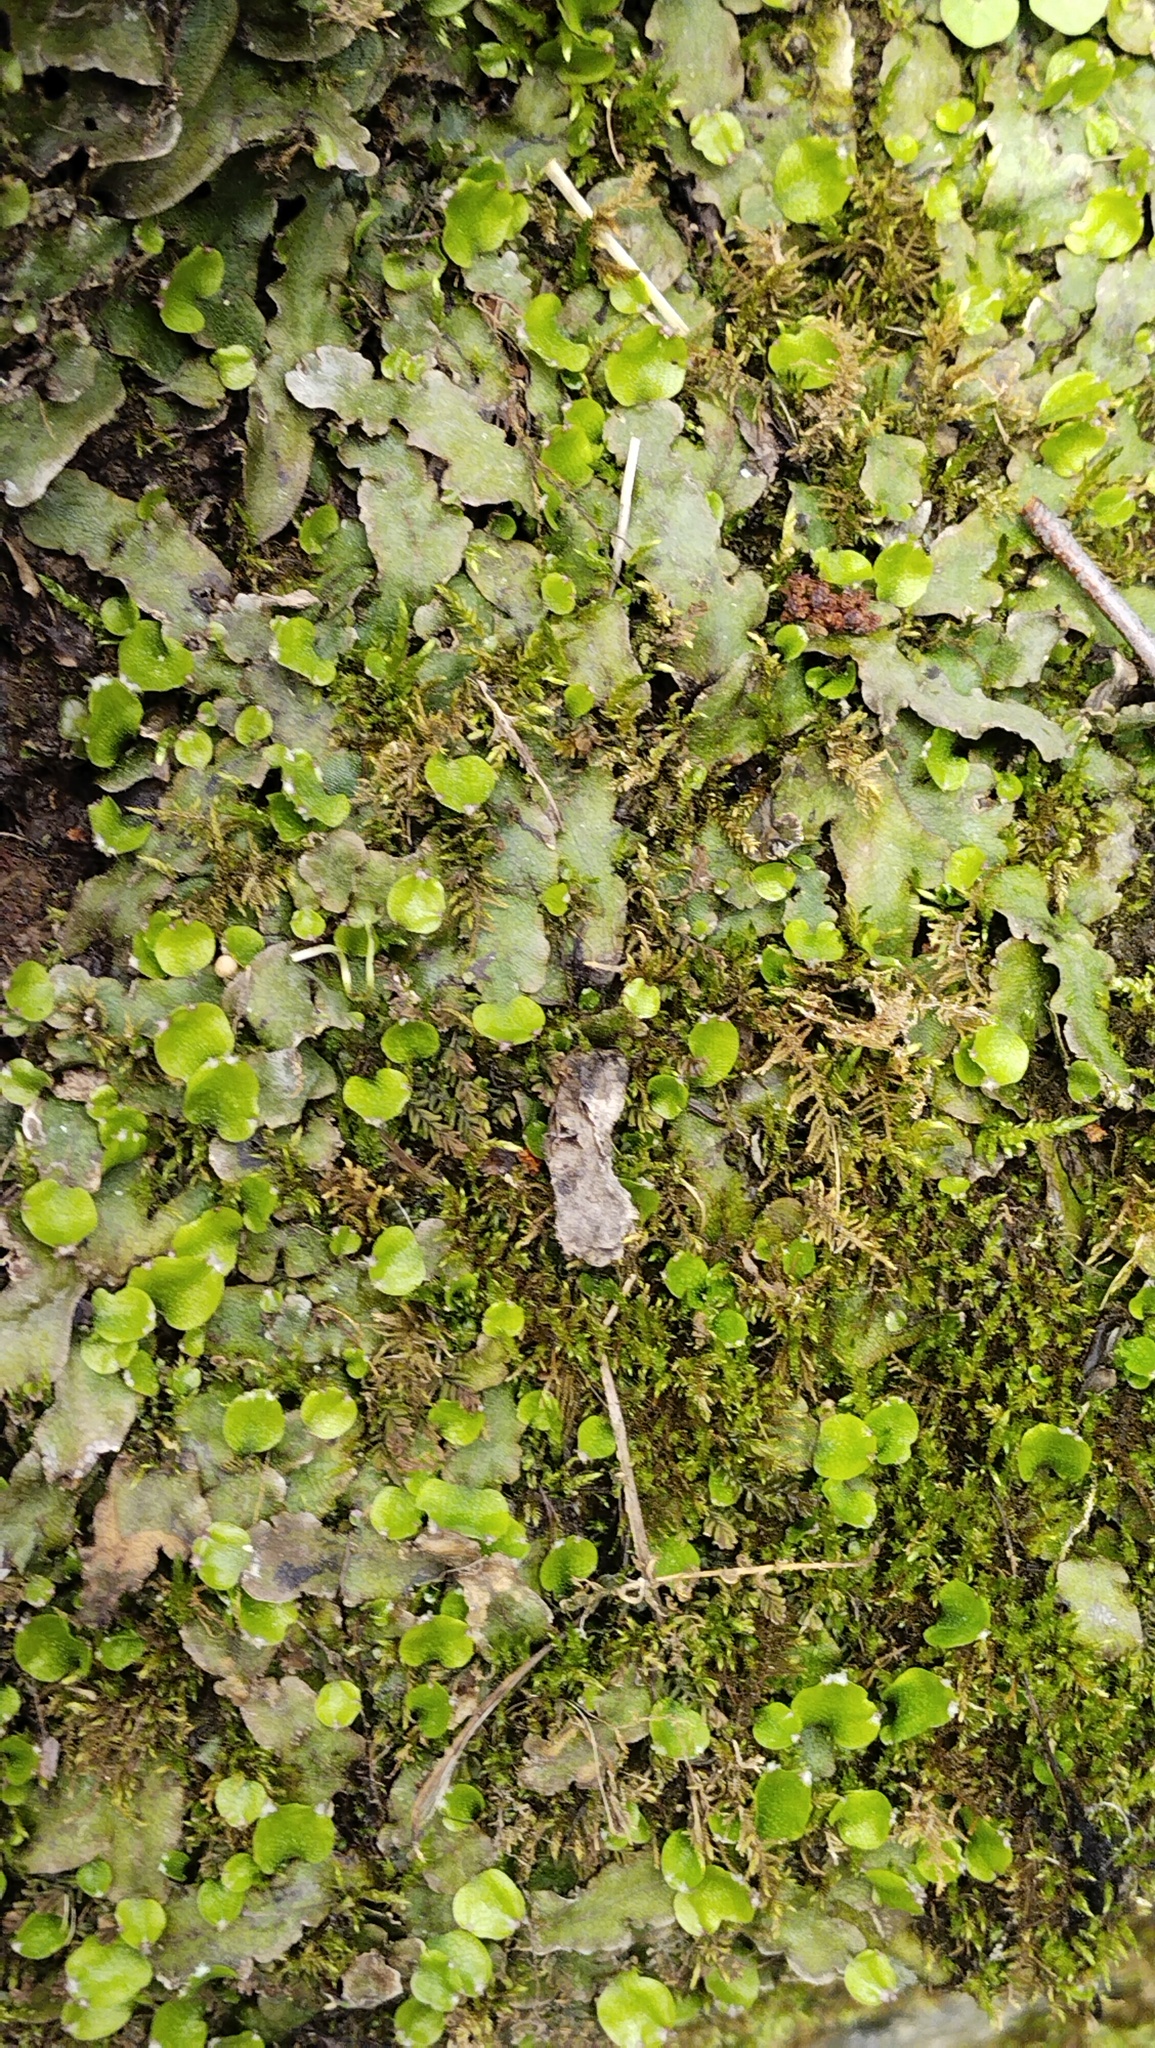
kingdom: Plantae
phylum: Marchantiophyta
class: Marchantiopsida
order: Marchantiales
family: Conocephalaceae
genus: Conocephalum
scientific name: Conocephalum salebrosum
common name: Cat-tongue liverwort
